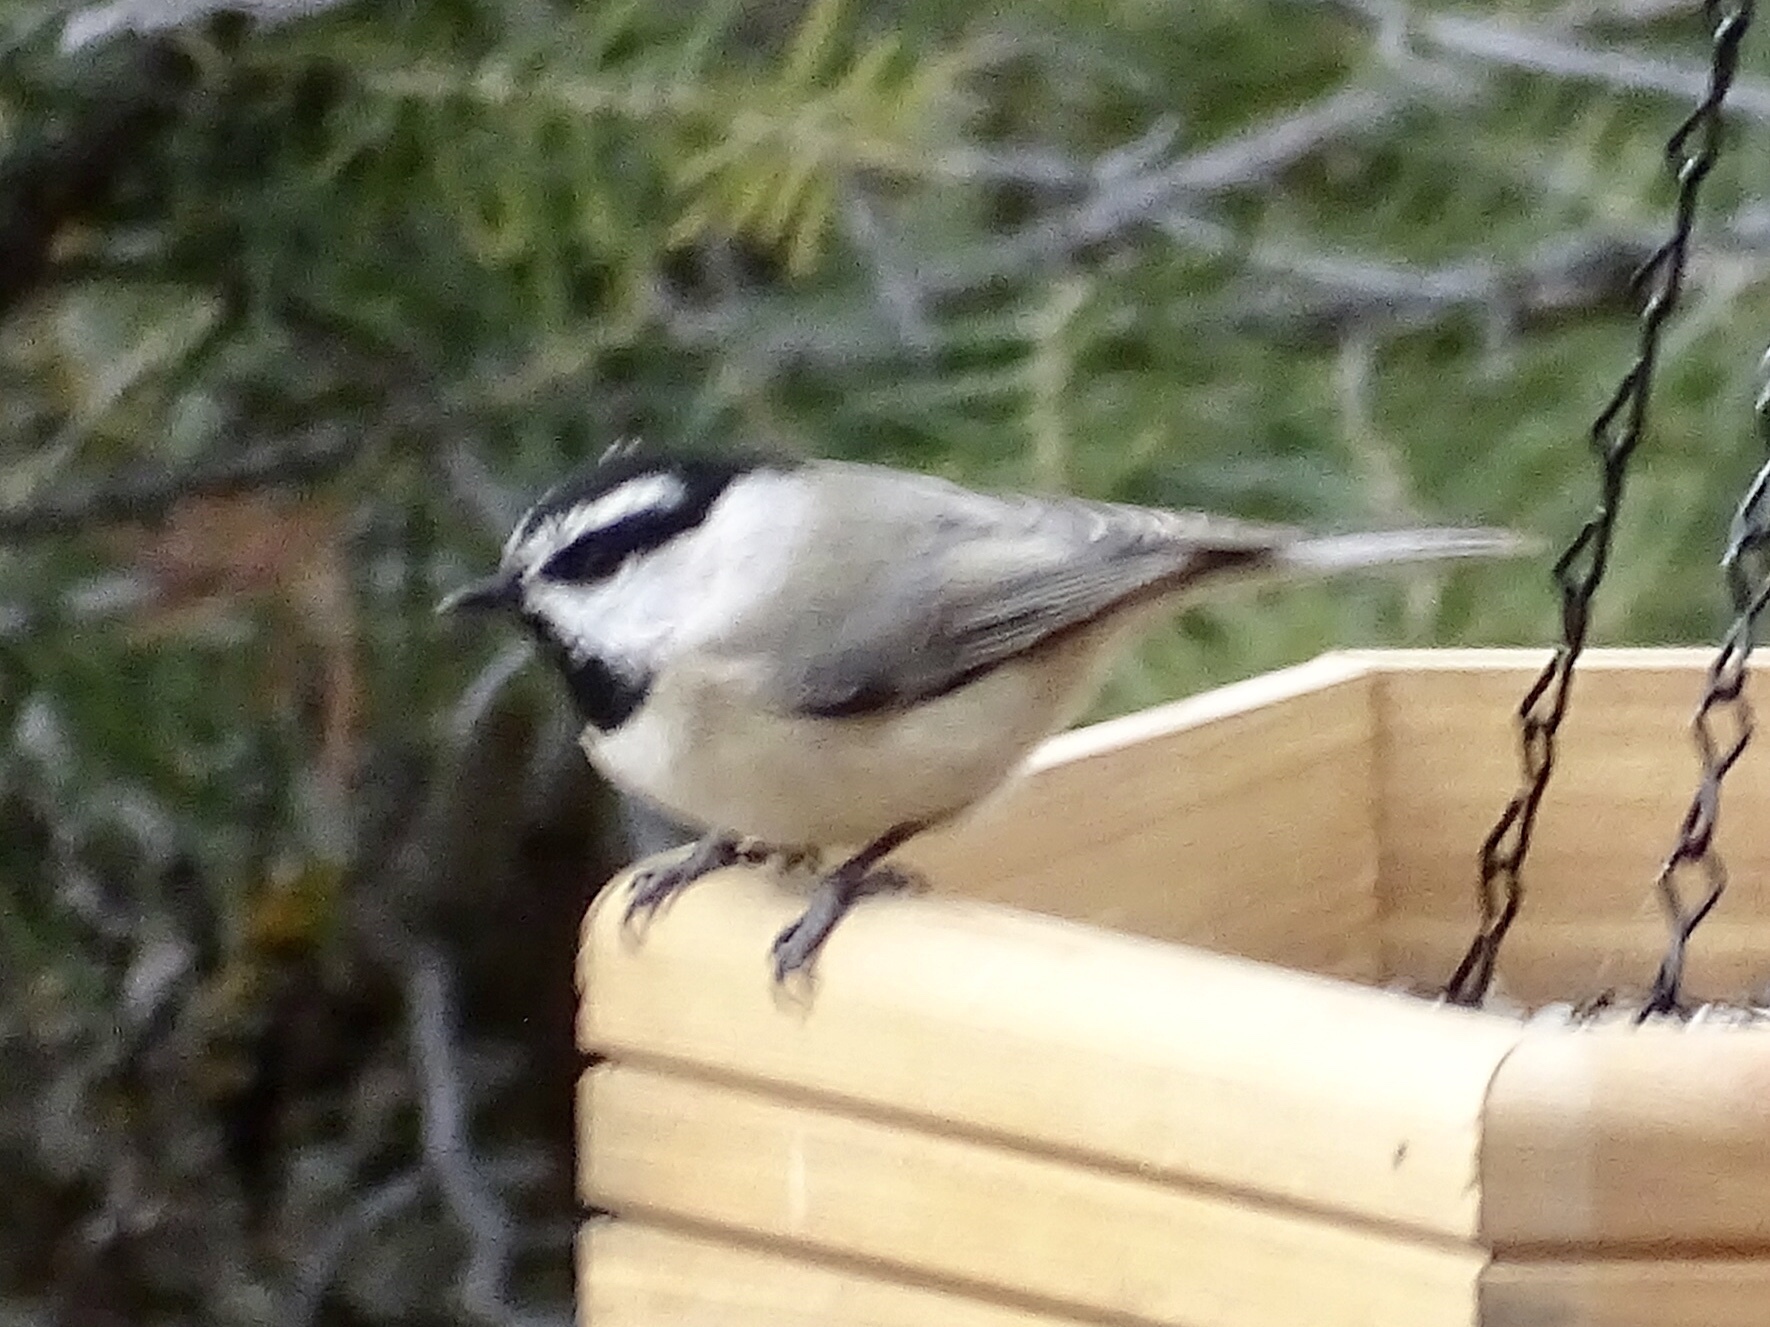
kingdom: Animalia
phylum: Chordata
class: Aves
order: Passeriformes
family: Paridae
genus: Poecile
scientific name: Poecile gambeli
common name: Mountain chickadee
